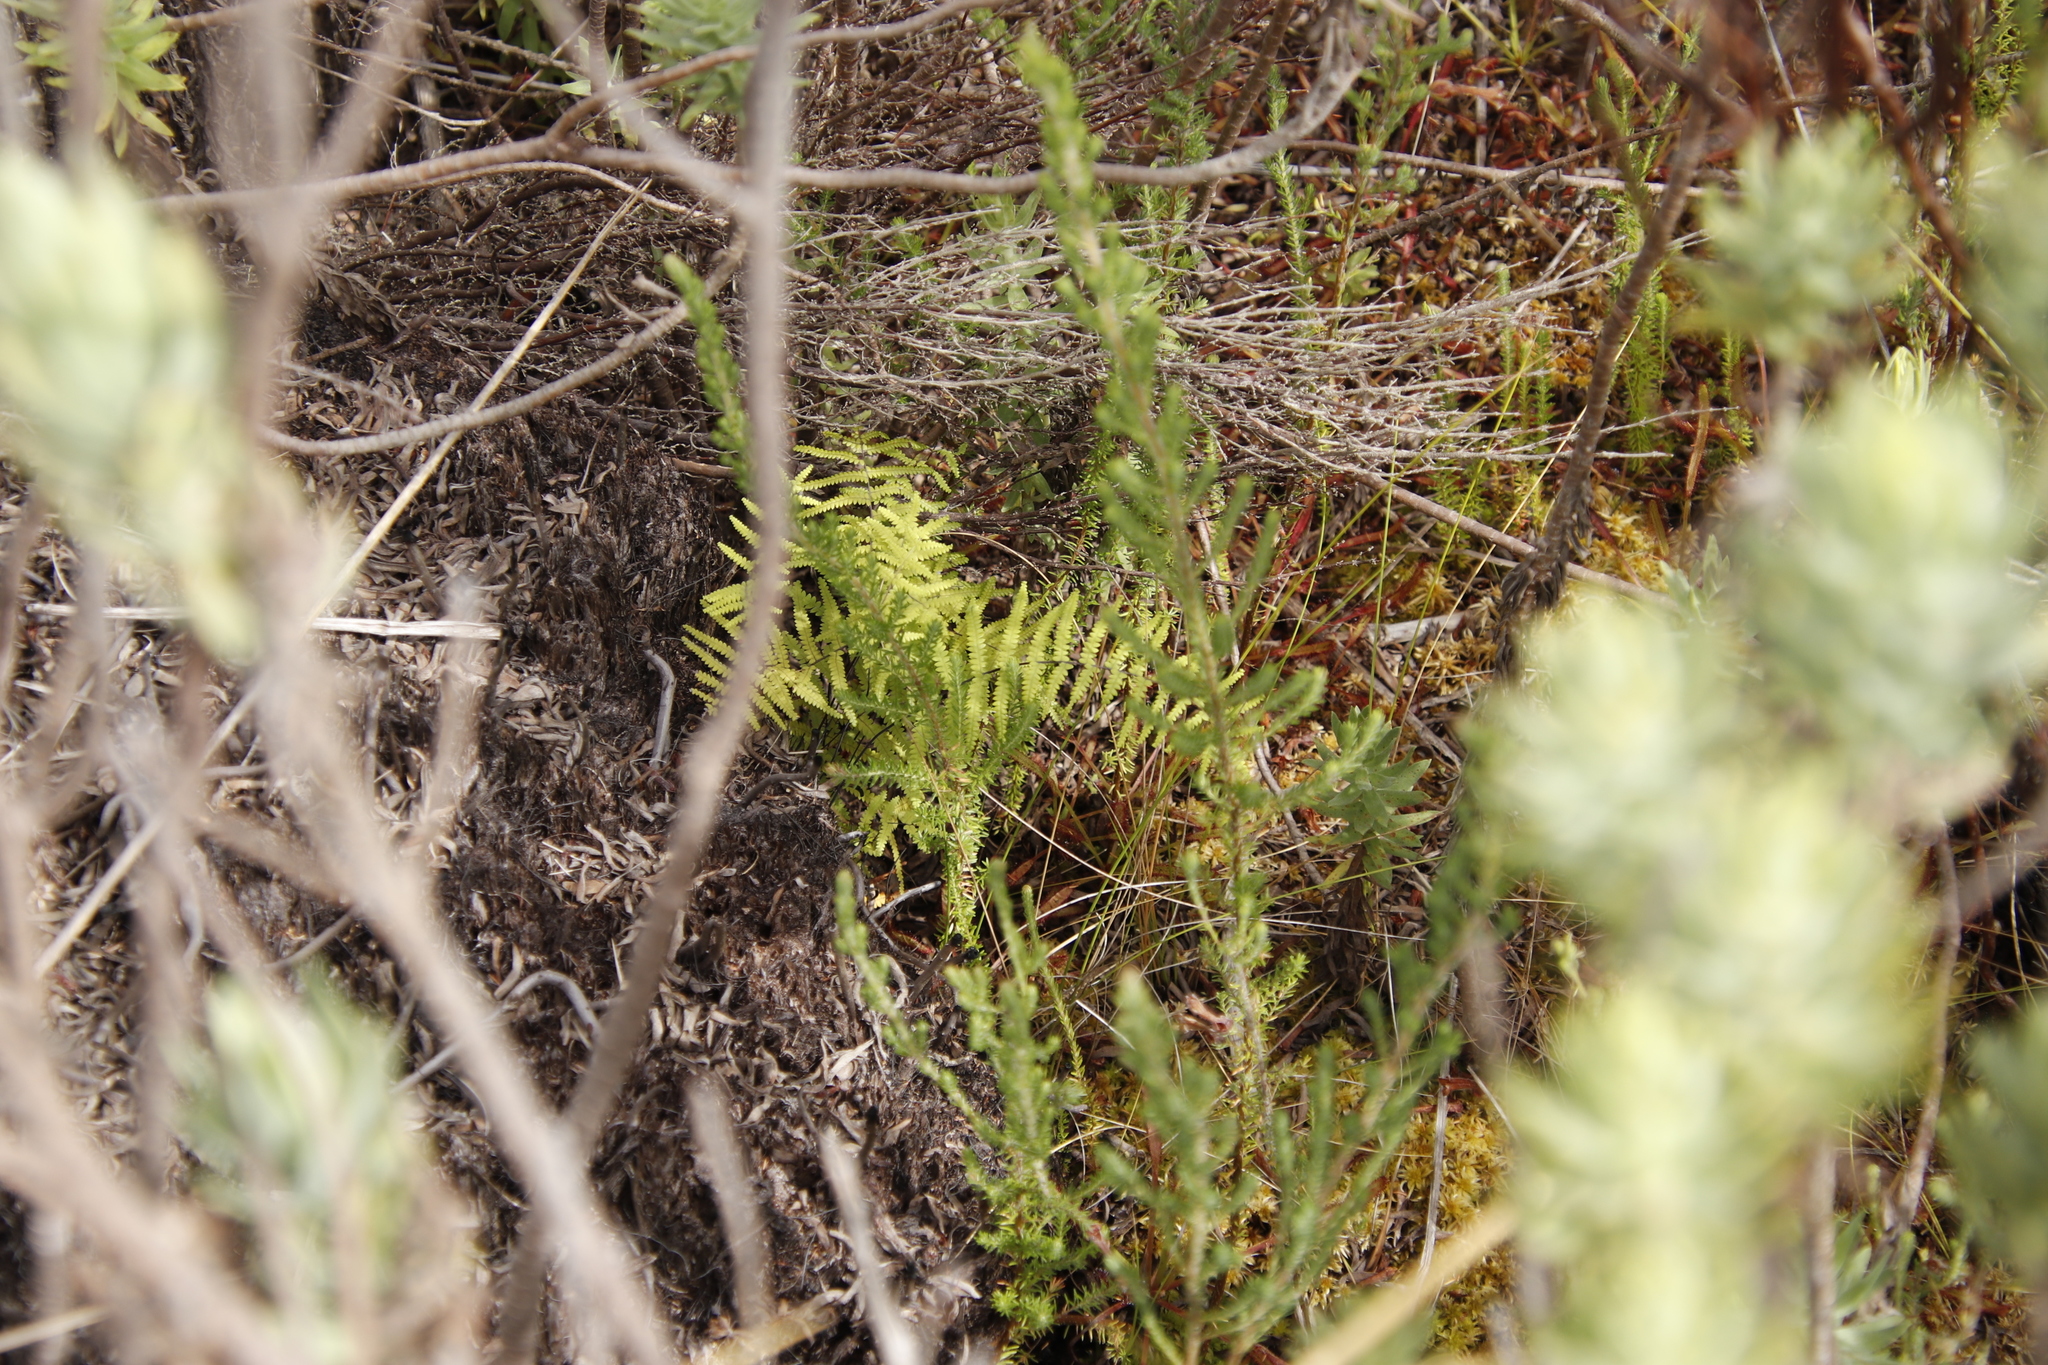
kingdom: Plantae
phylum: Tracheophyta
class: Polypodiopsida
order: Gleicheniales
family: Gleicheniaceae
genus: Gleichenia
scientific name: Gleichenia polypodioides
